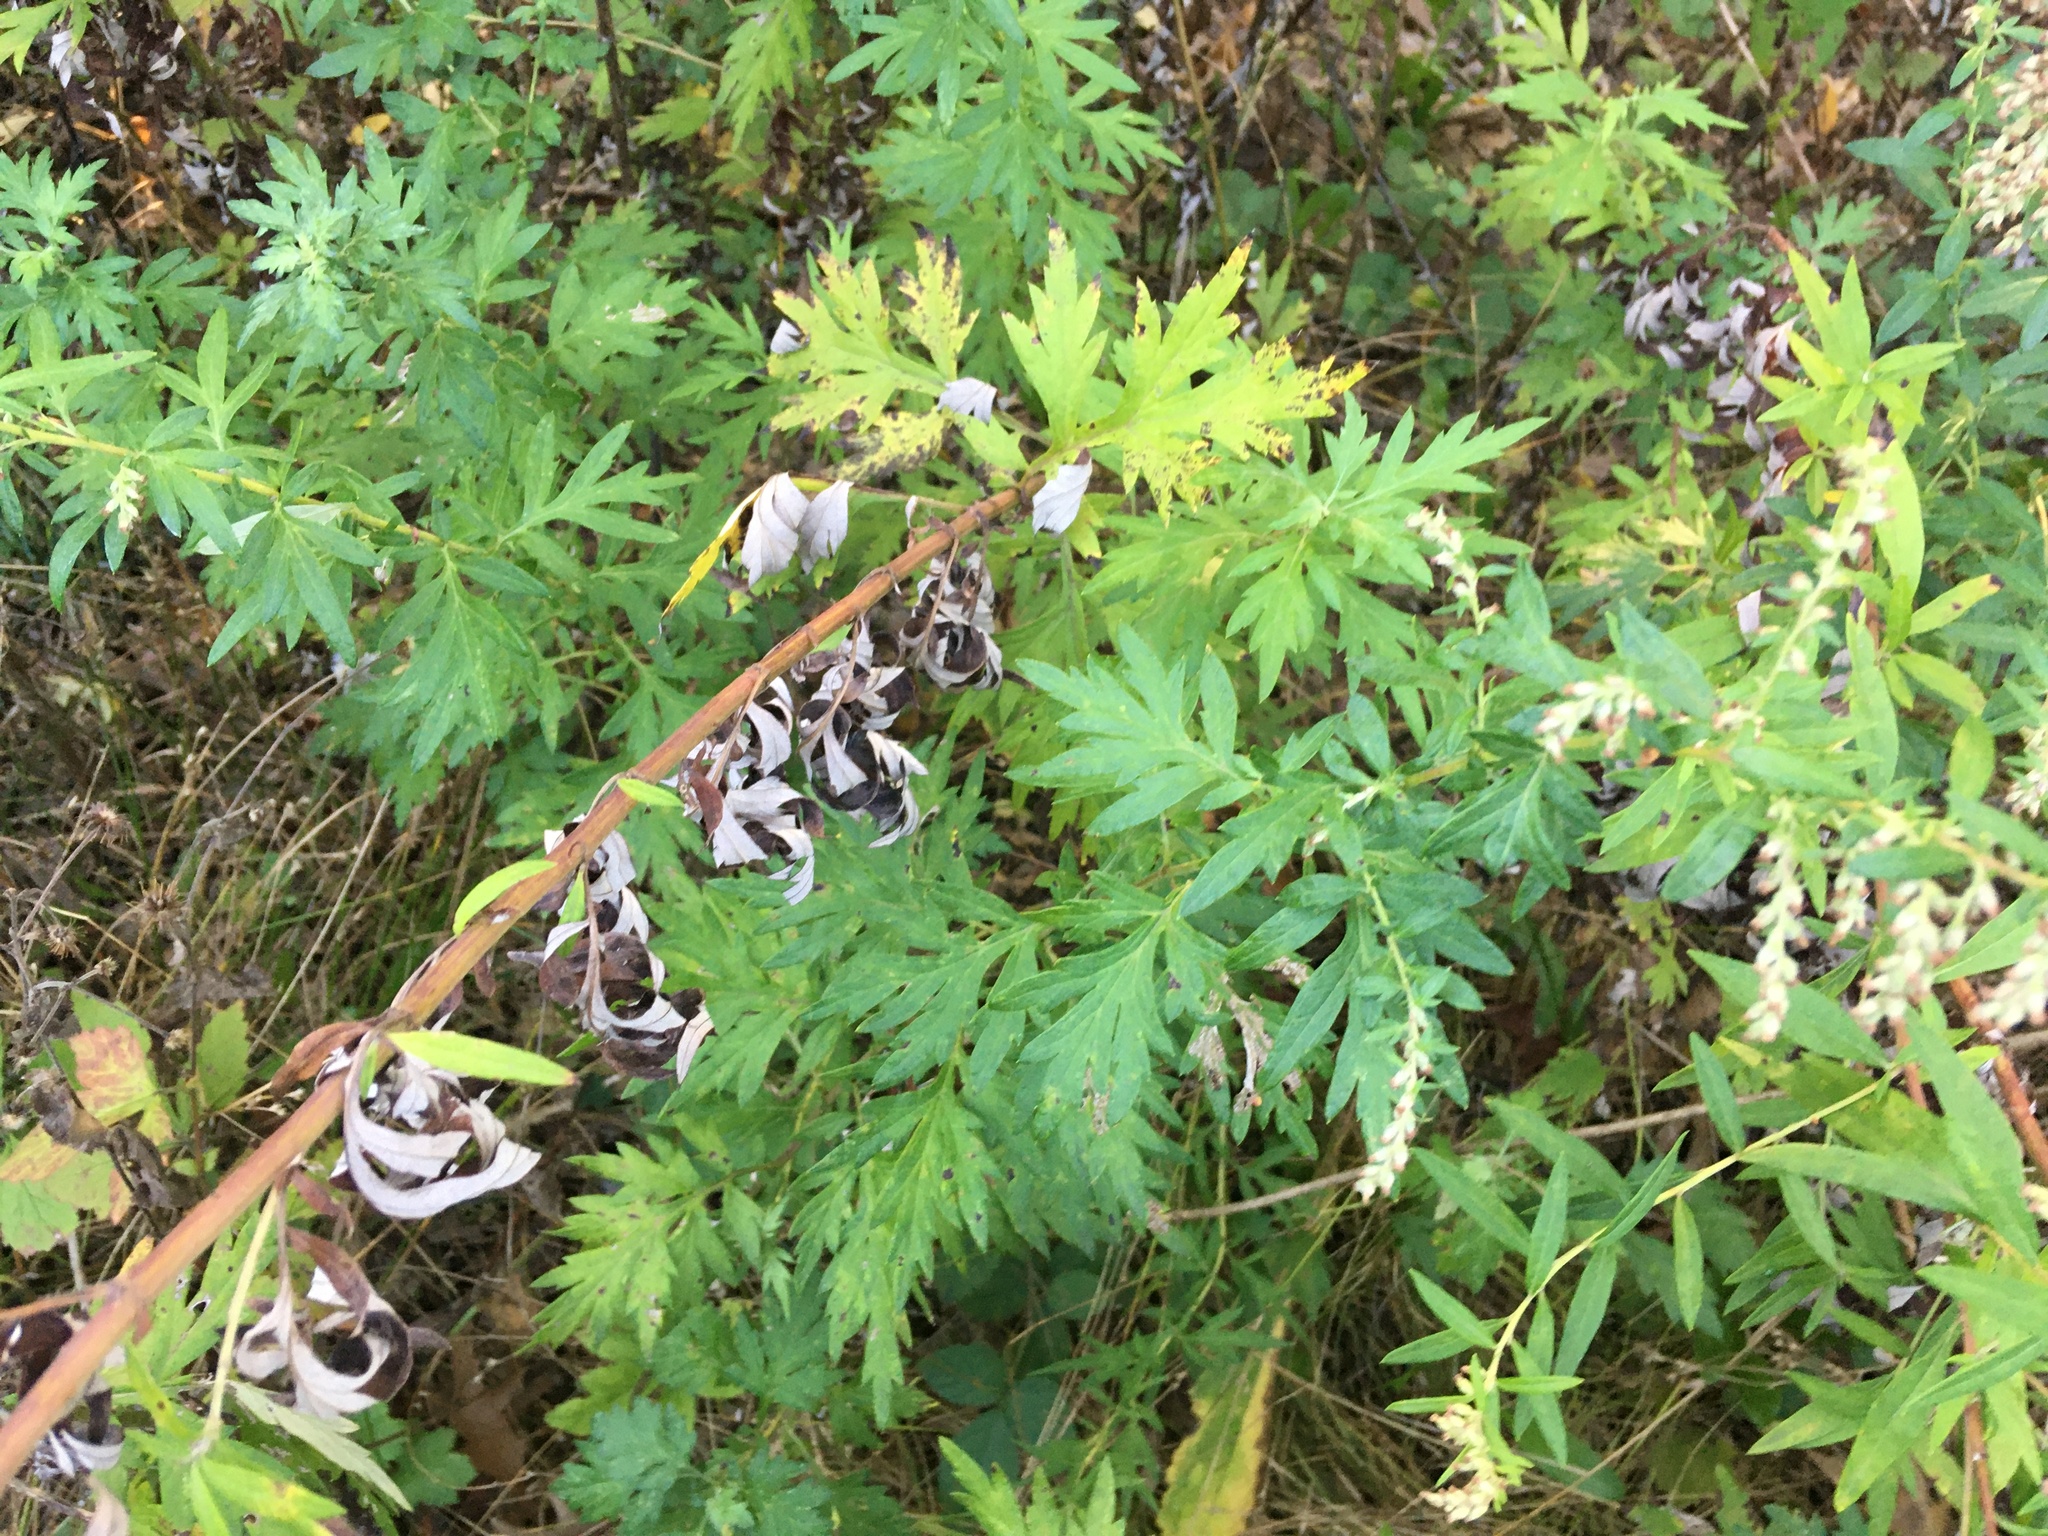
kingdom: Plantae
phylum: Tracheophyta
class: Magnoliopsida
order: Asterales
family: Asteraceae
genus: Artemisia
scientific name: Artemisia vulgaris
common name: Mugwort
